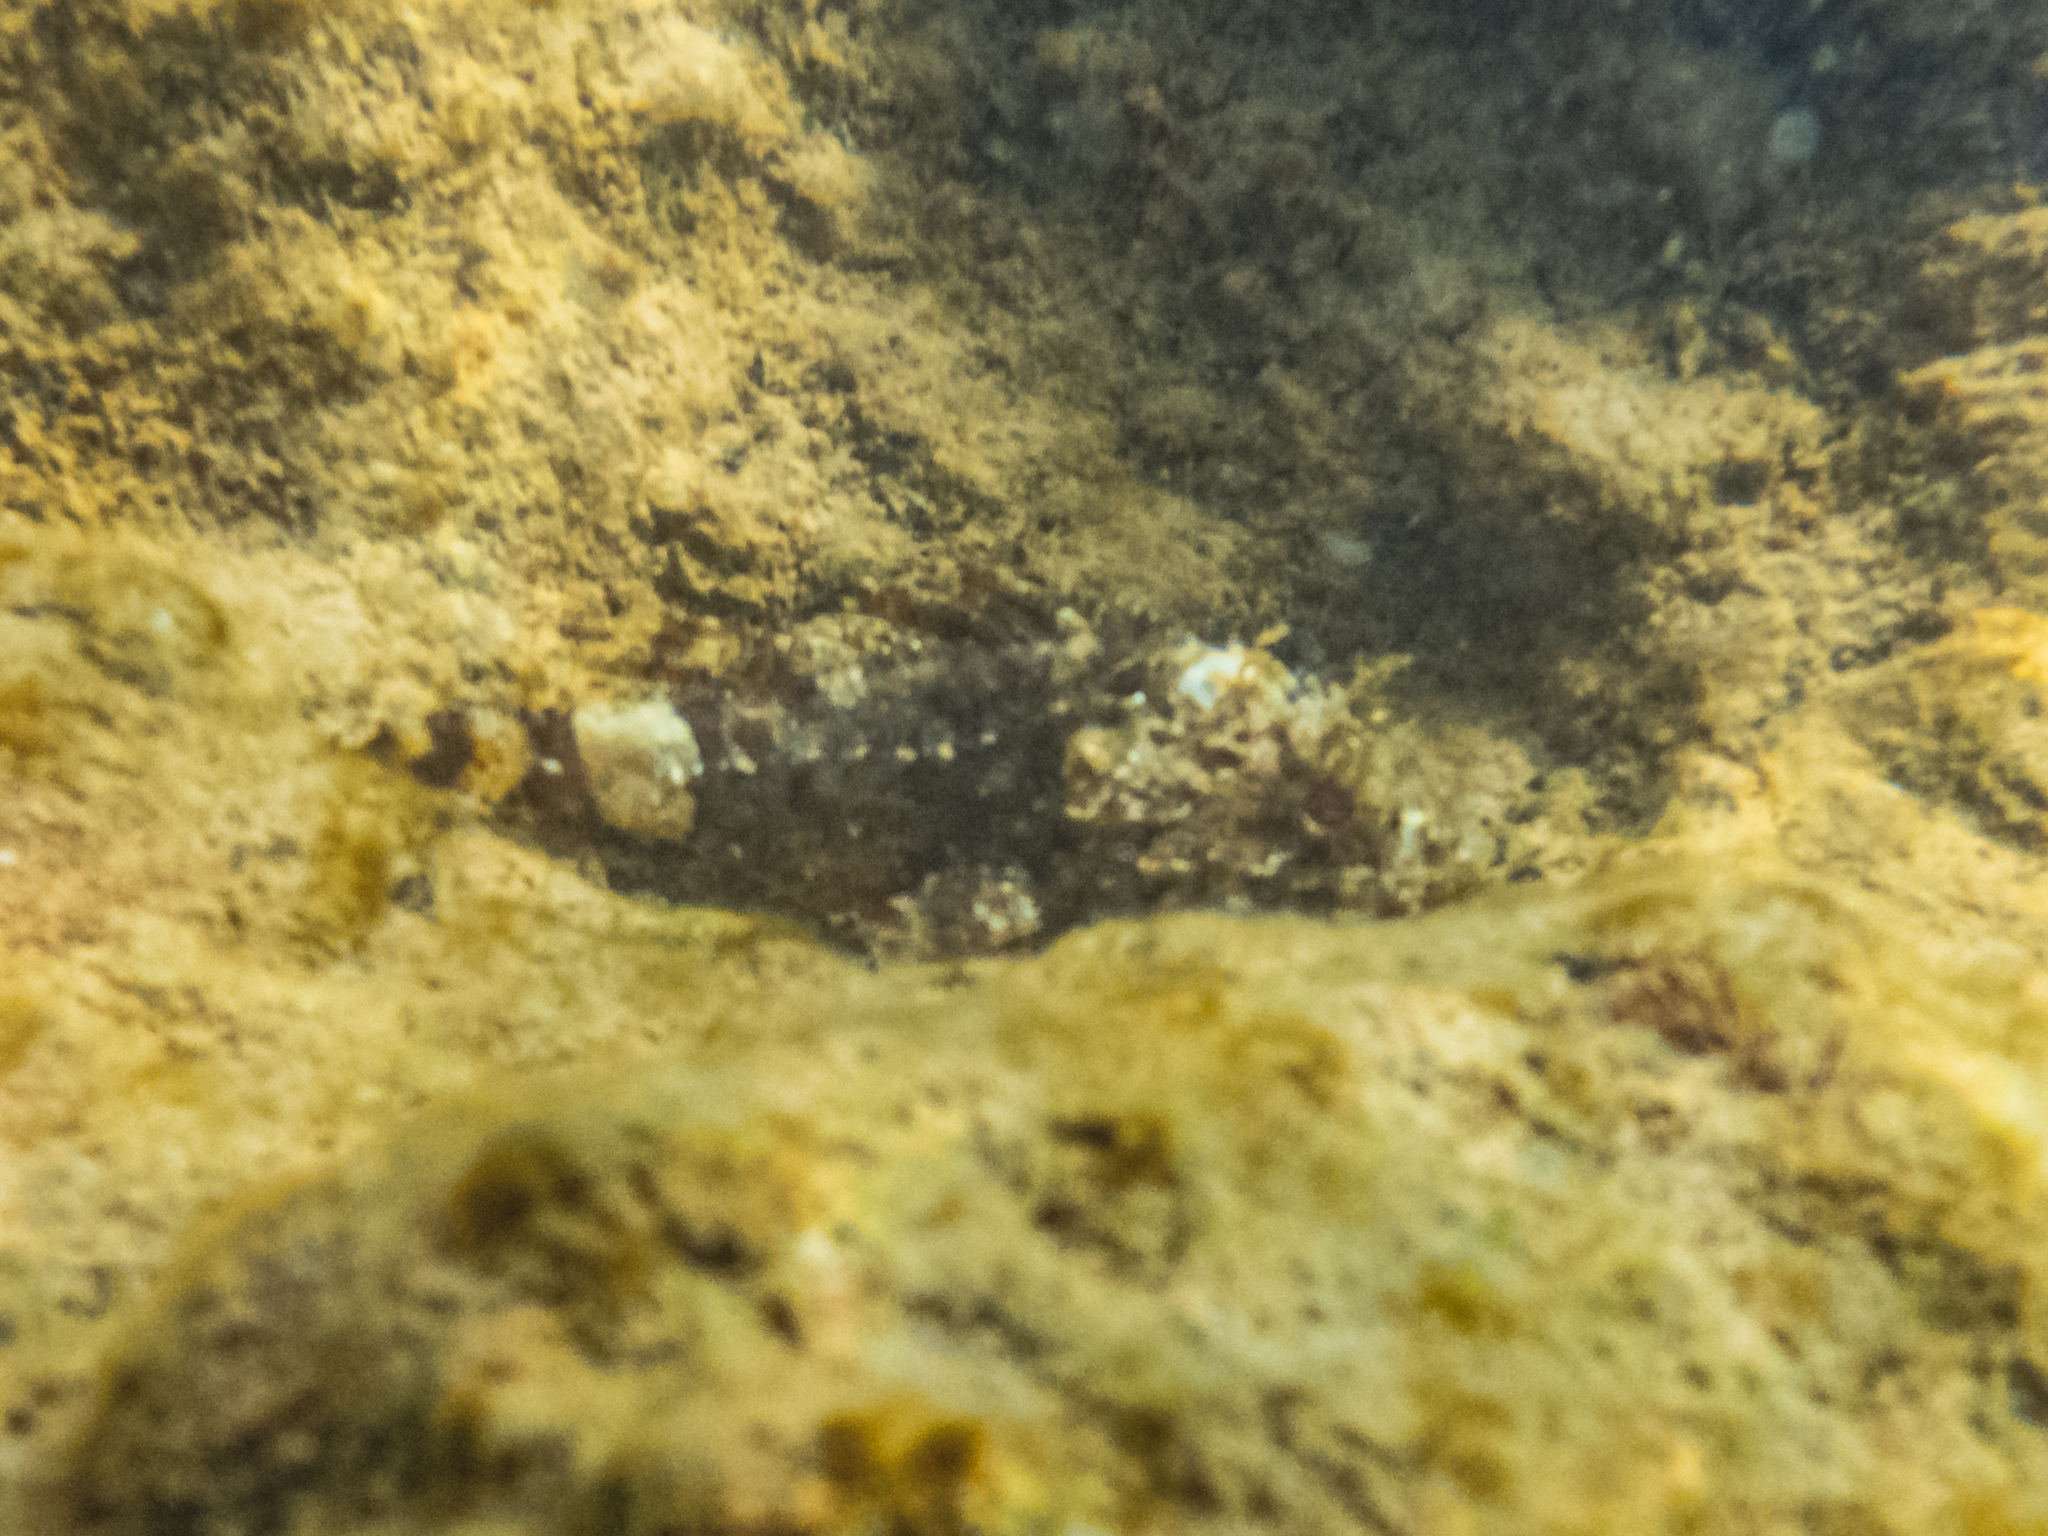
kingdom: Animalia
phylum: Chordata
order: Scorpaeniformes
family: Scorpaenidae
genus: Scorpaena
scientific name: Scorpaena porcus
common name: Black scorpionfish
